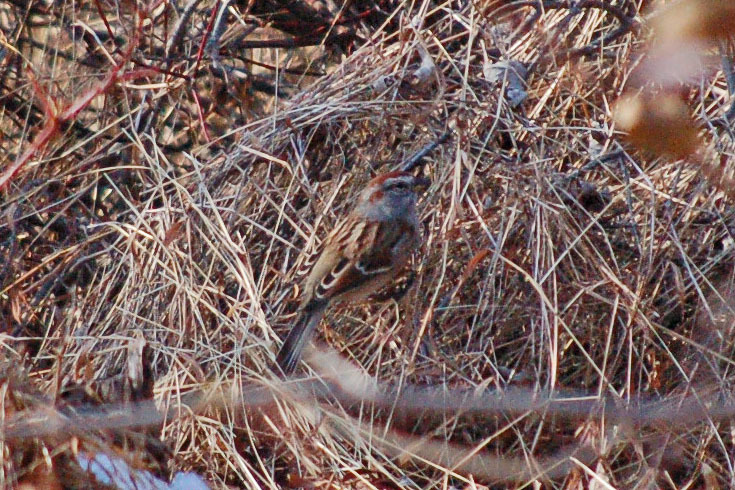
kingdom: Animalia
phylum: Chordata
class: Aves
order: Passeriformes
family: Passerellidae
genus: Spizelloides
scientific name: Spizelloides arborea
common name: American tree sparrow
